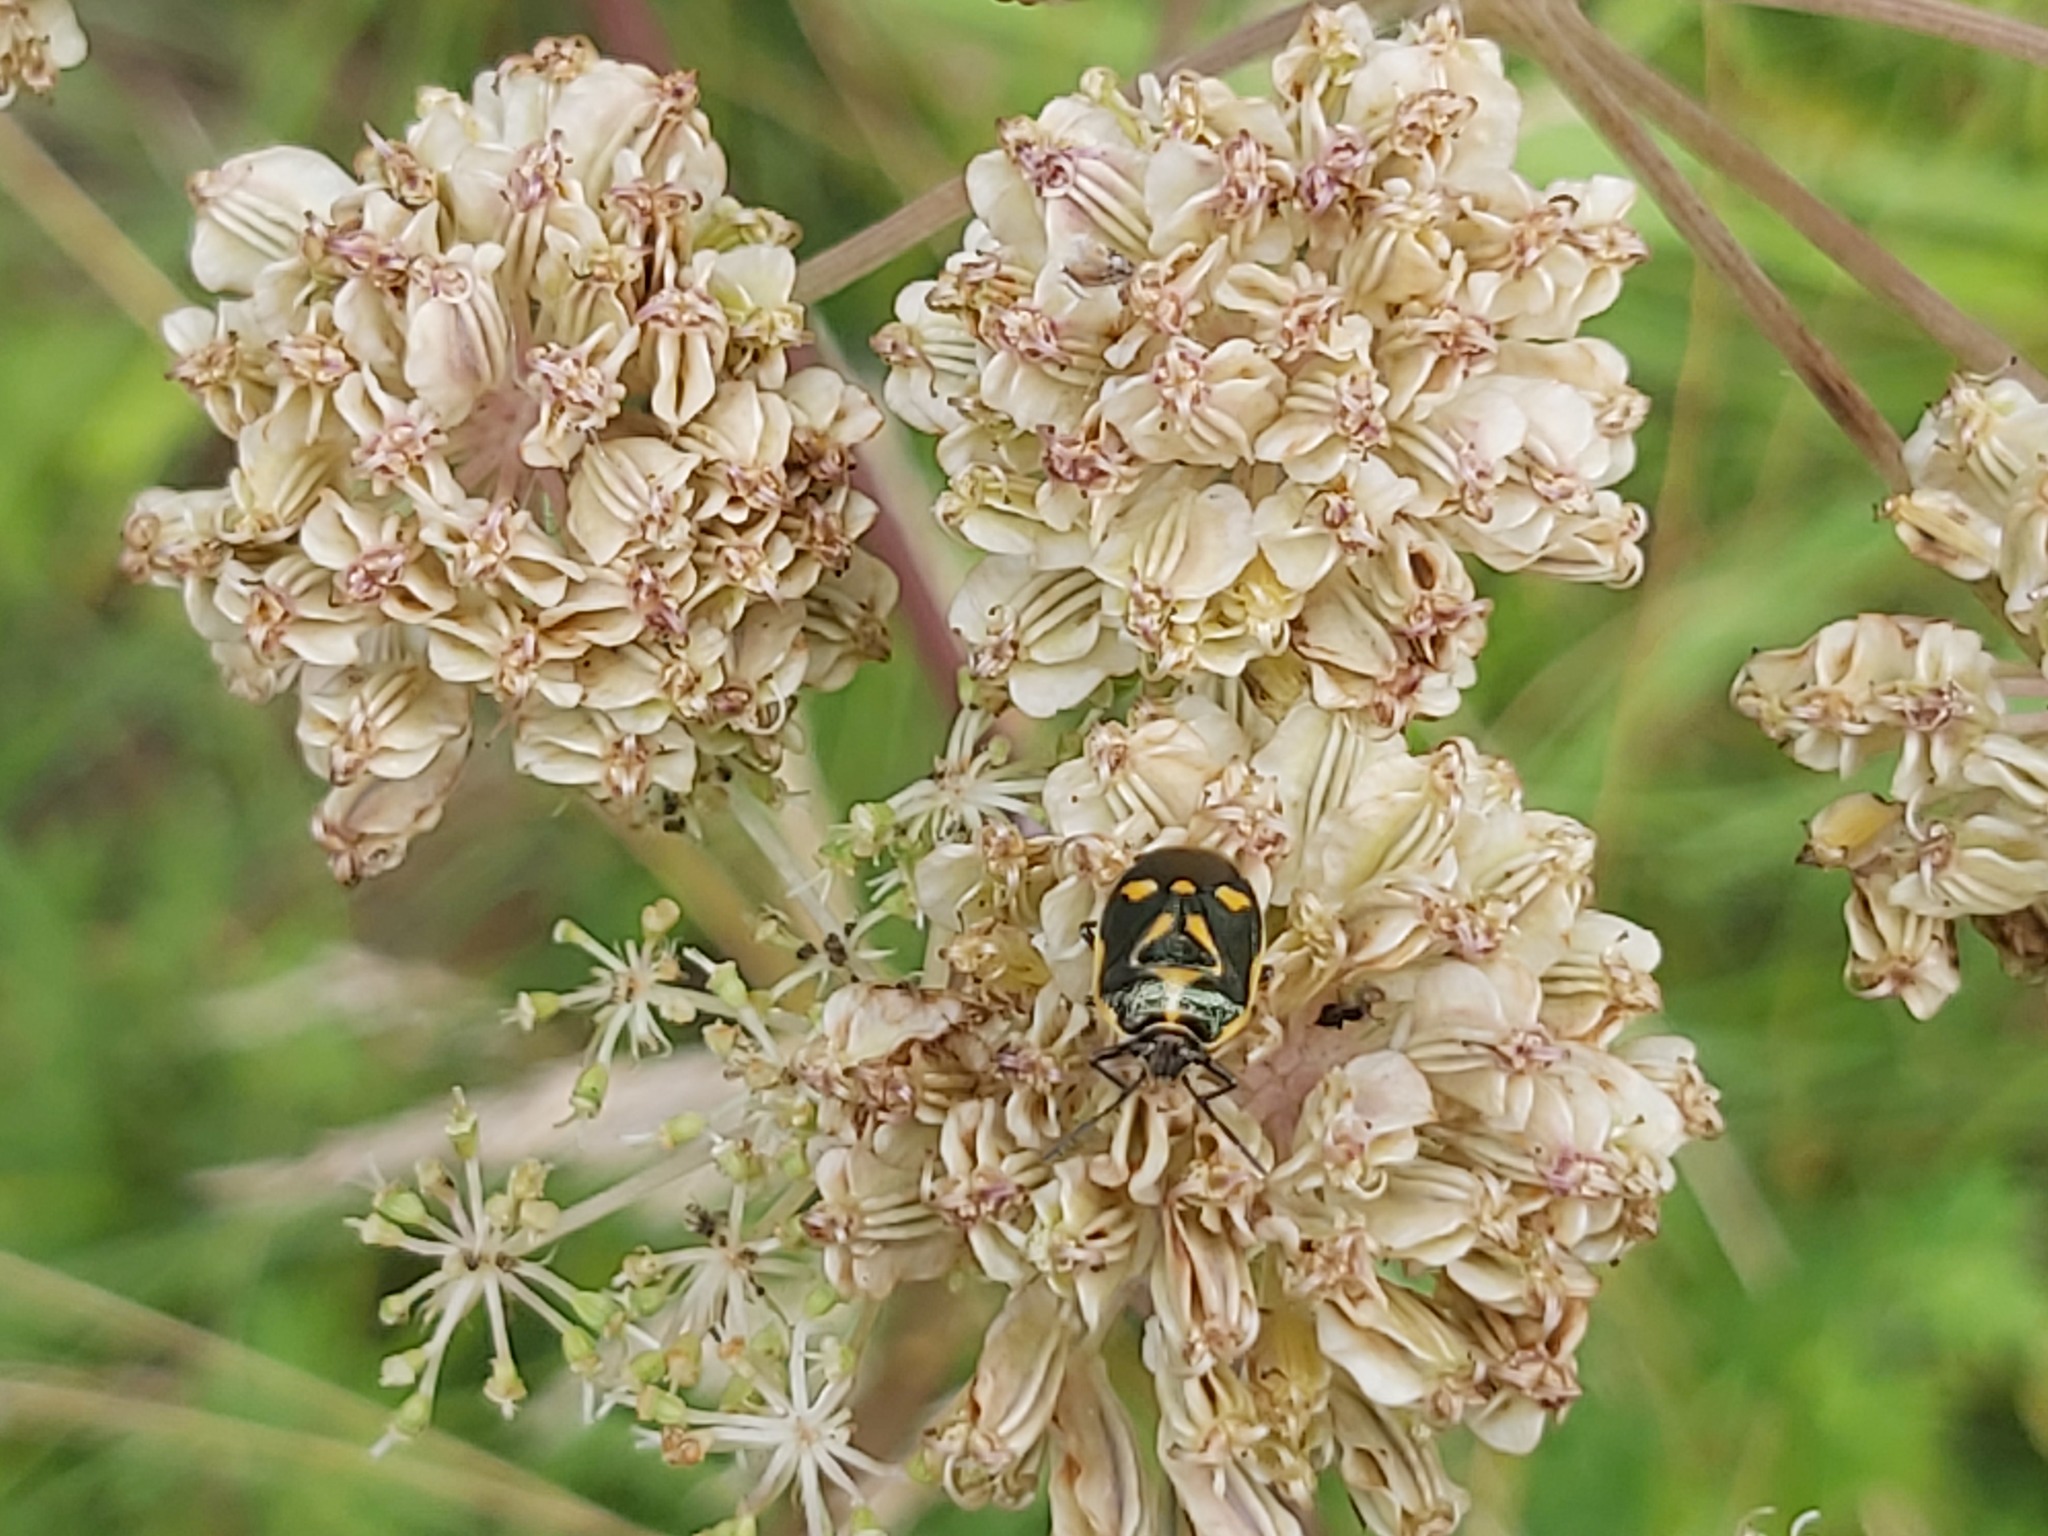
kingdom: Animalia
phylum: Arthropoda
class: Insecta
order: Hemiptera
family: Pentatomidae
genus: Eurydema
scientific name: Eurydema oleracea
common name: Cabbage bug
